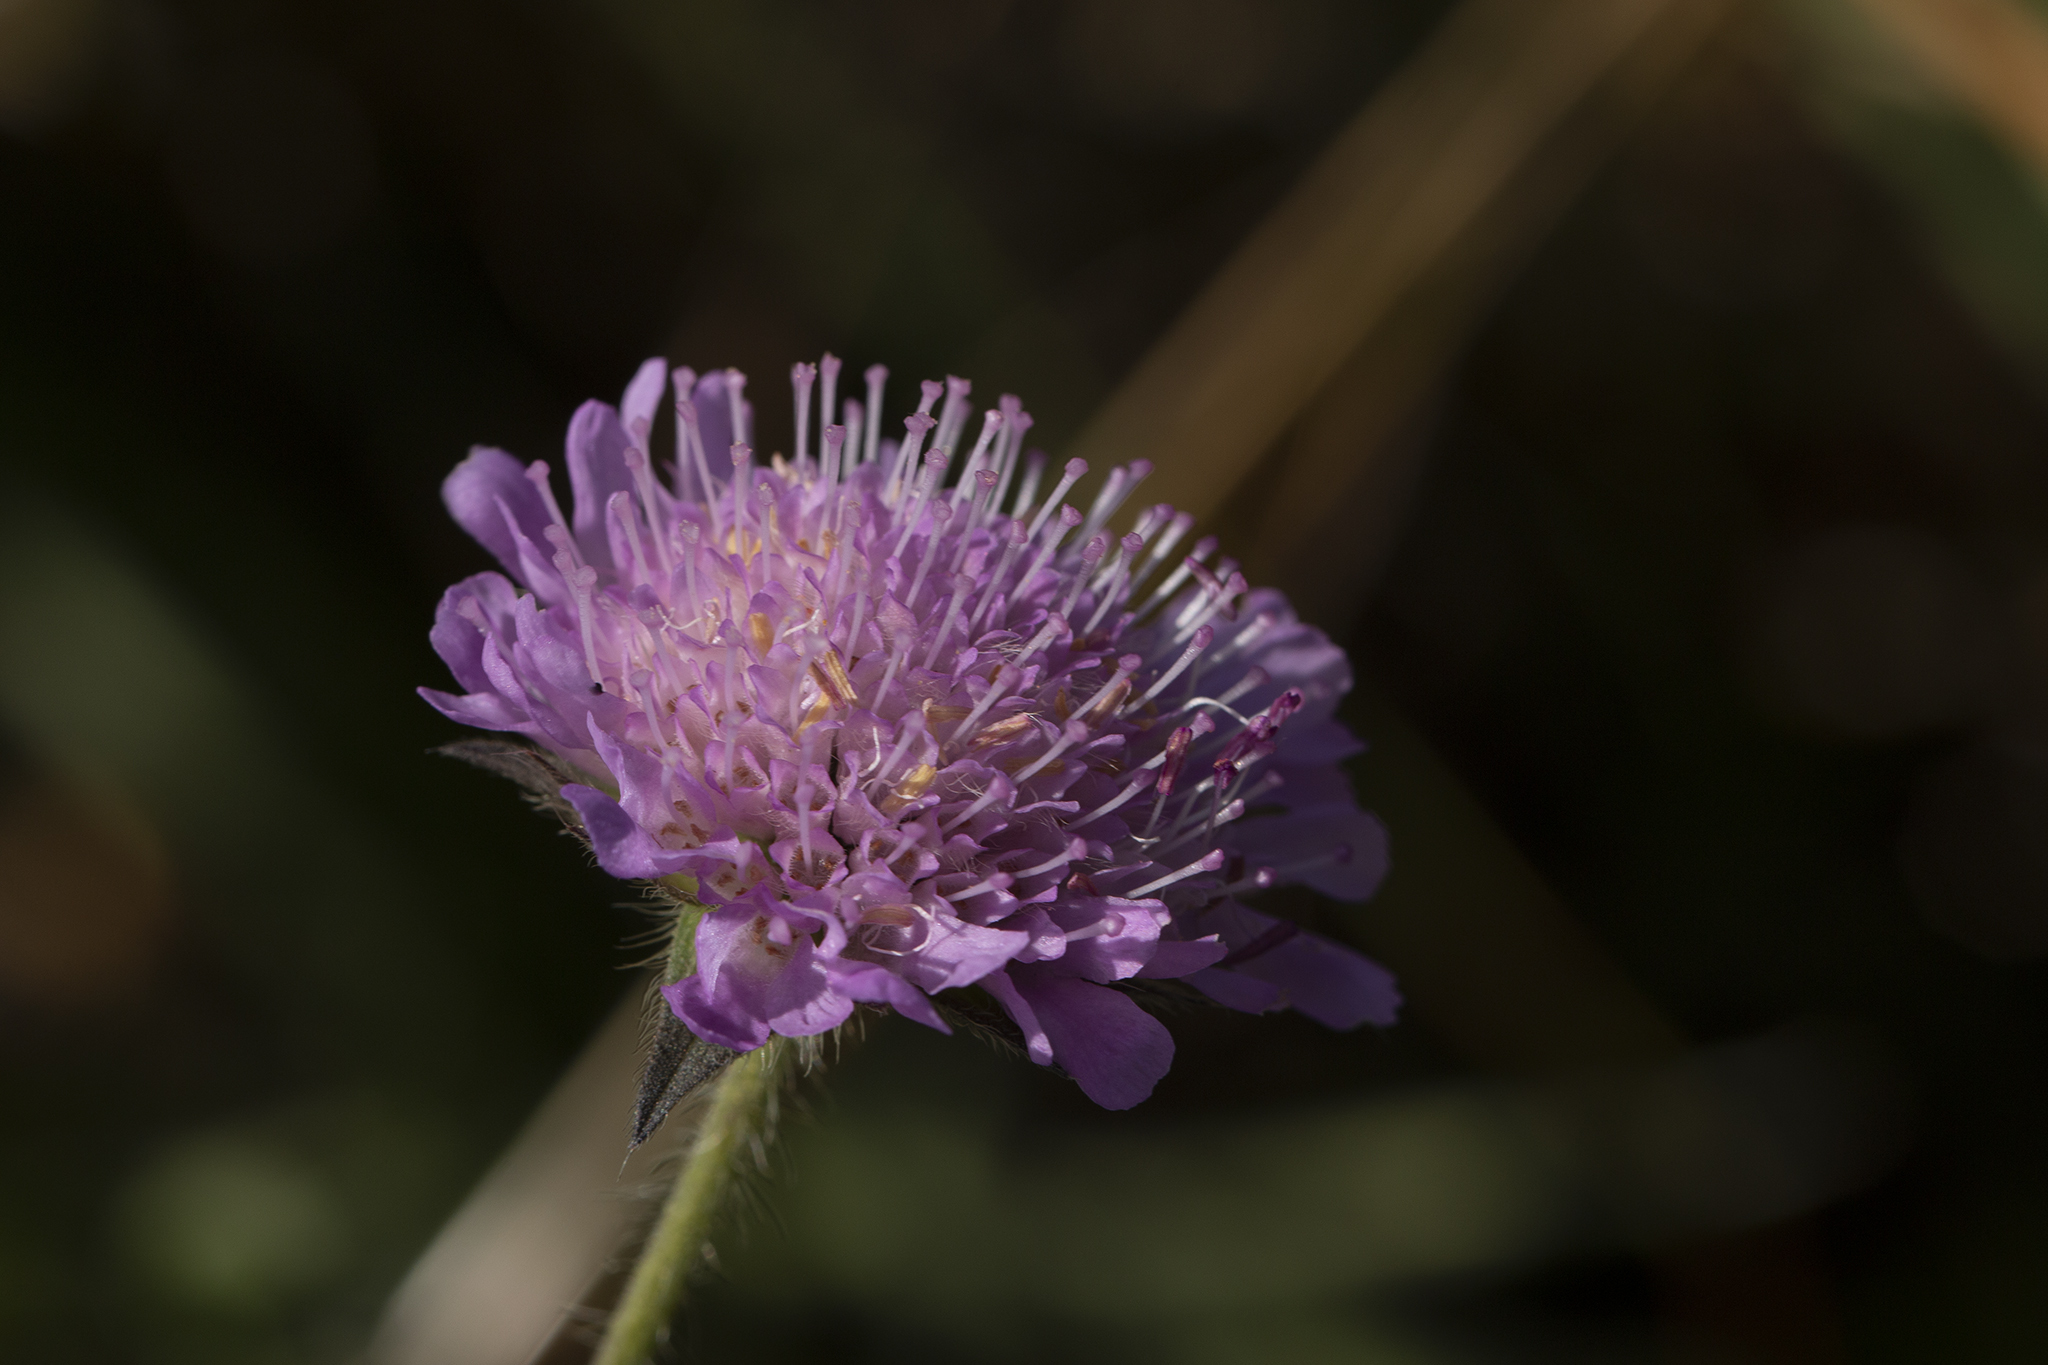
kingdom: Plantae
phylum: Tracheophyta
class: Magnoliopsida
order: Dipsacales
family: Caprifoliaceae
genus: Knautia
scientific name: Knautia arvensis
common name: Field scabiosa
